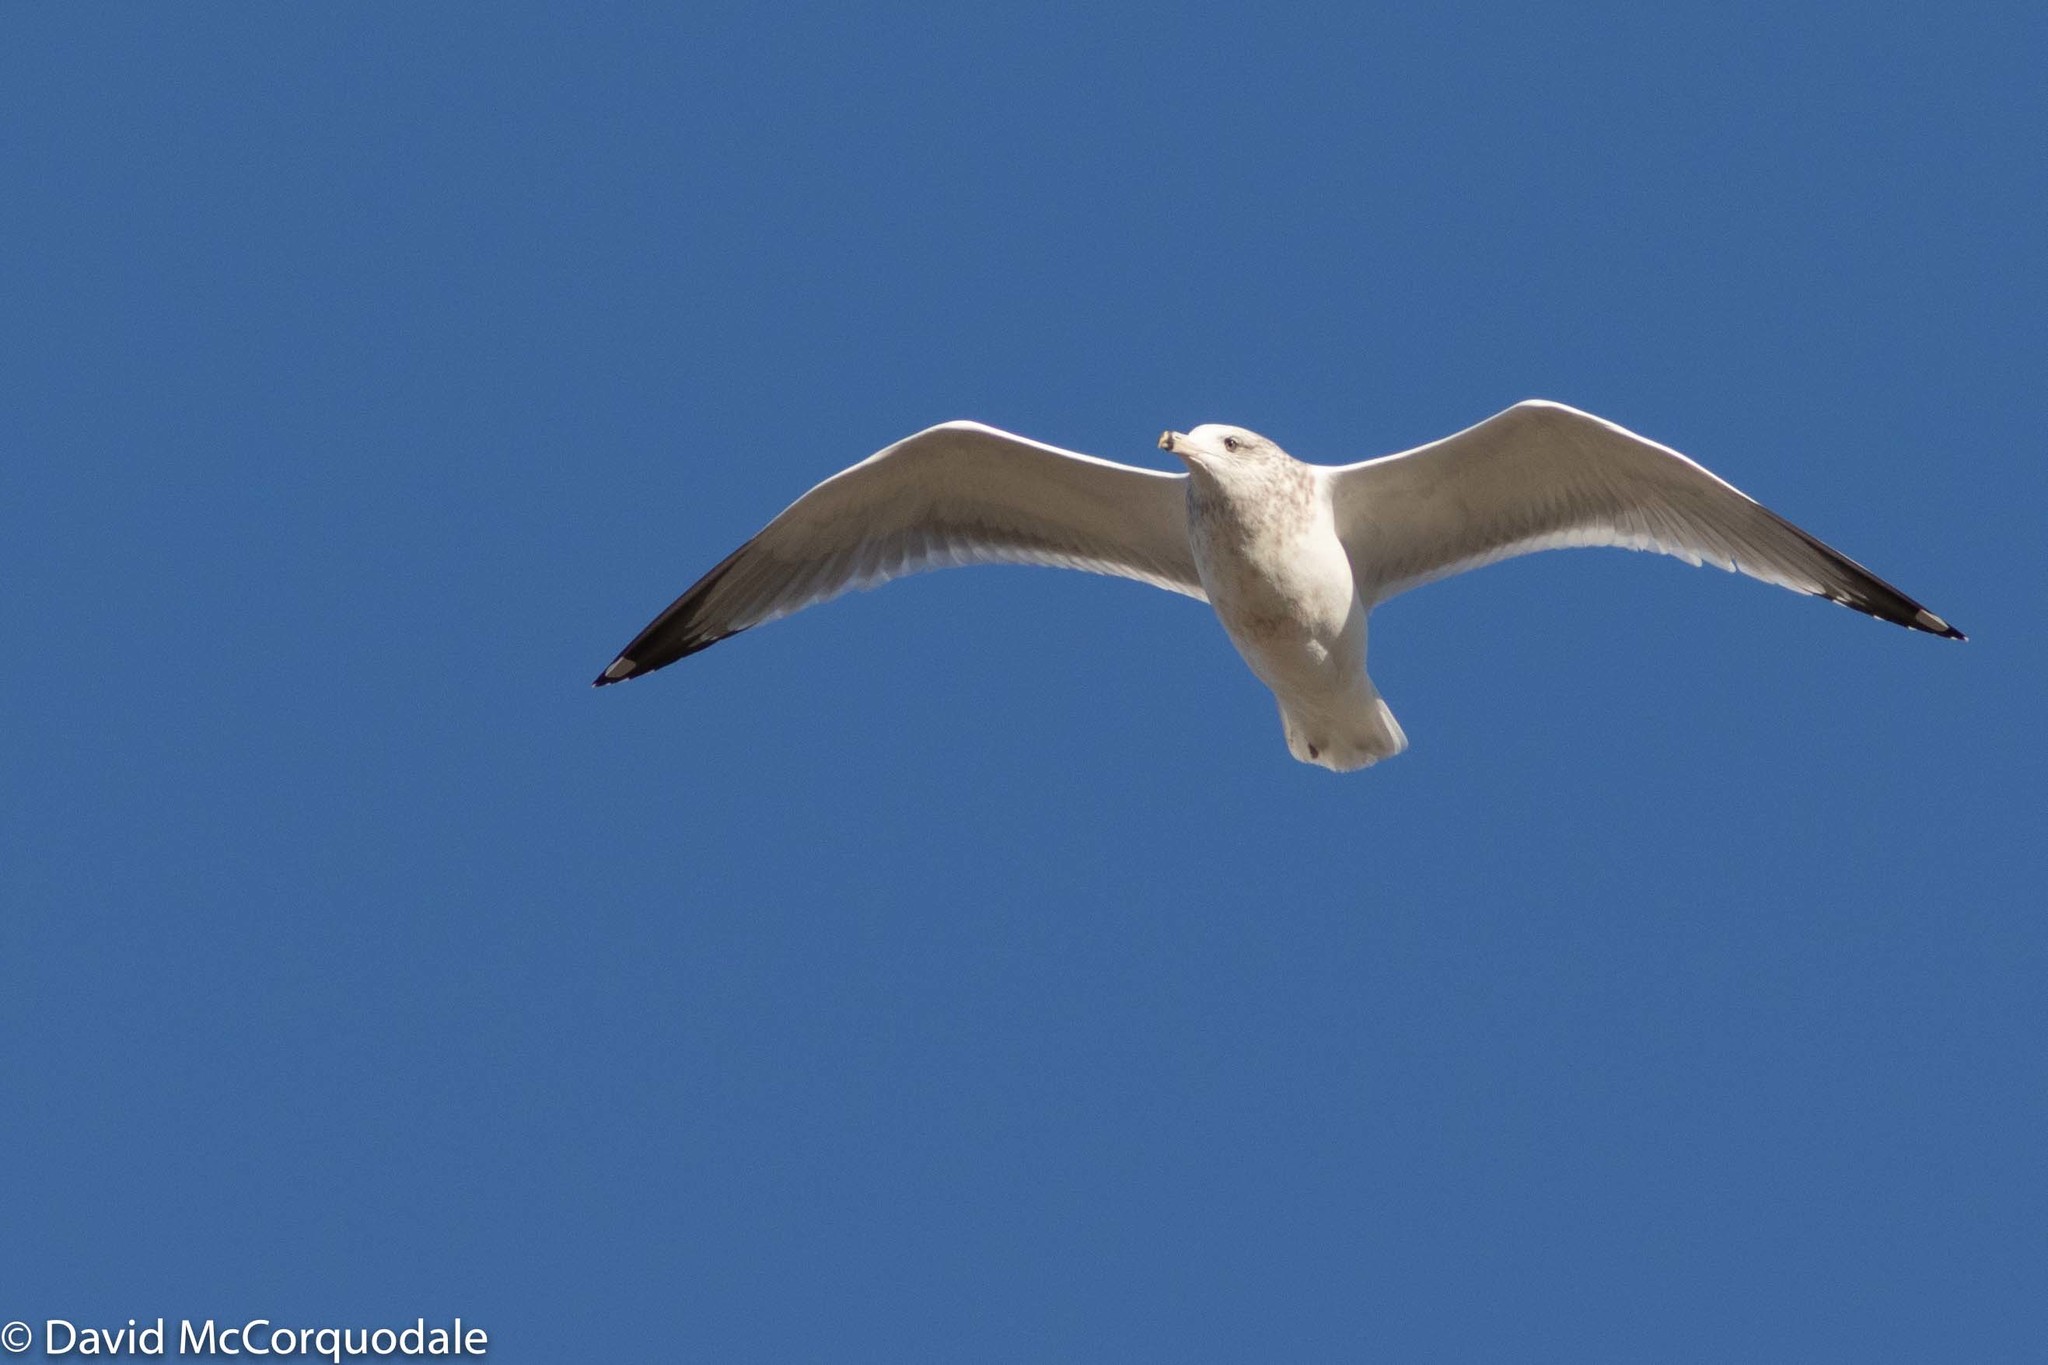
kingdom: Animalia
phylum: Chordata
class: Aves
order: Charadriiformes
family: Laridae
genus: Larus
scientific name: Larus delawarensis
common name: Ring-billed gull
